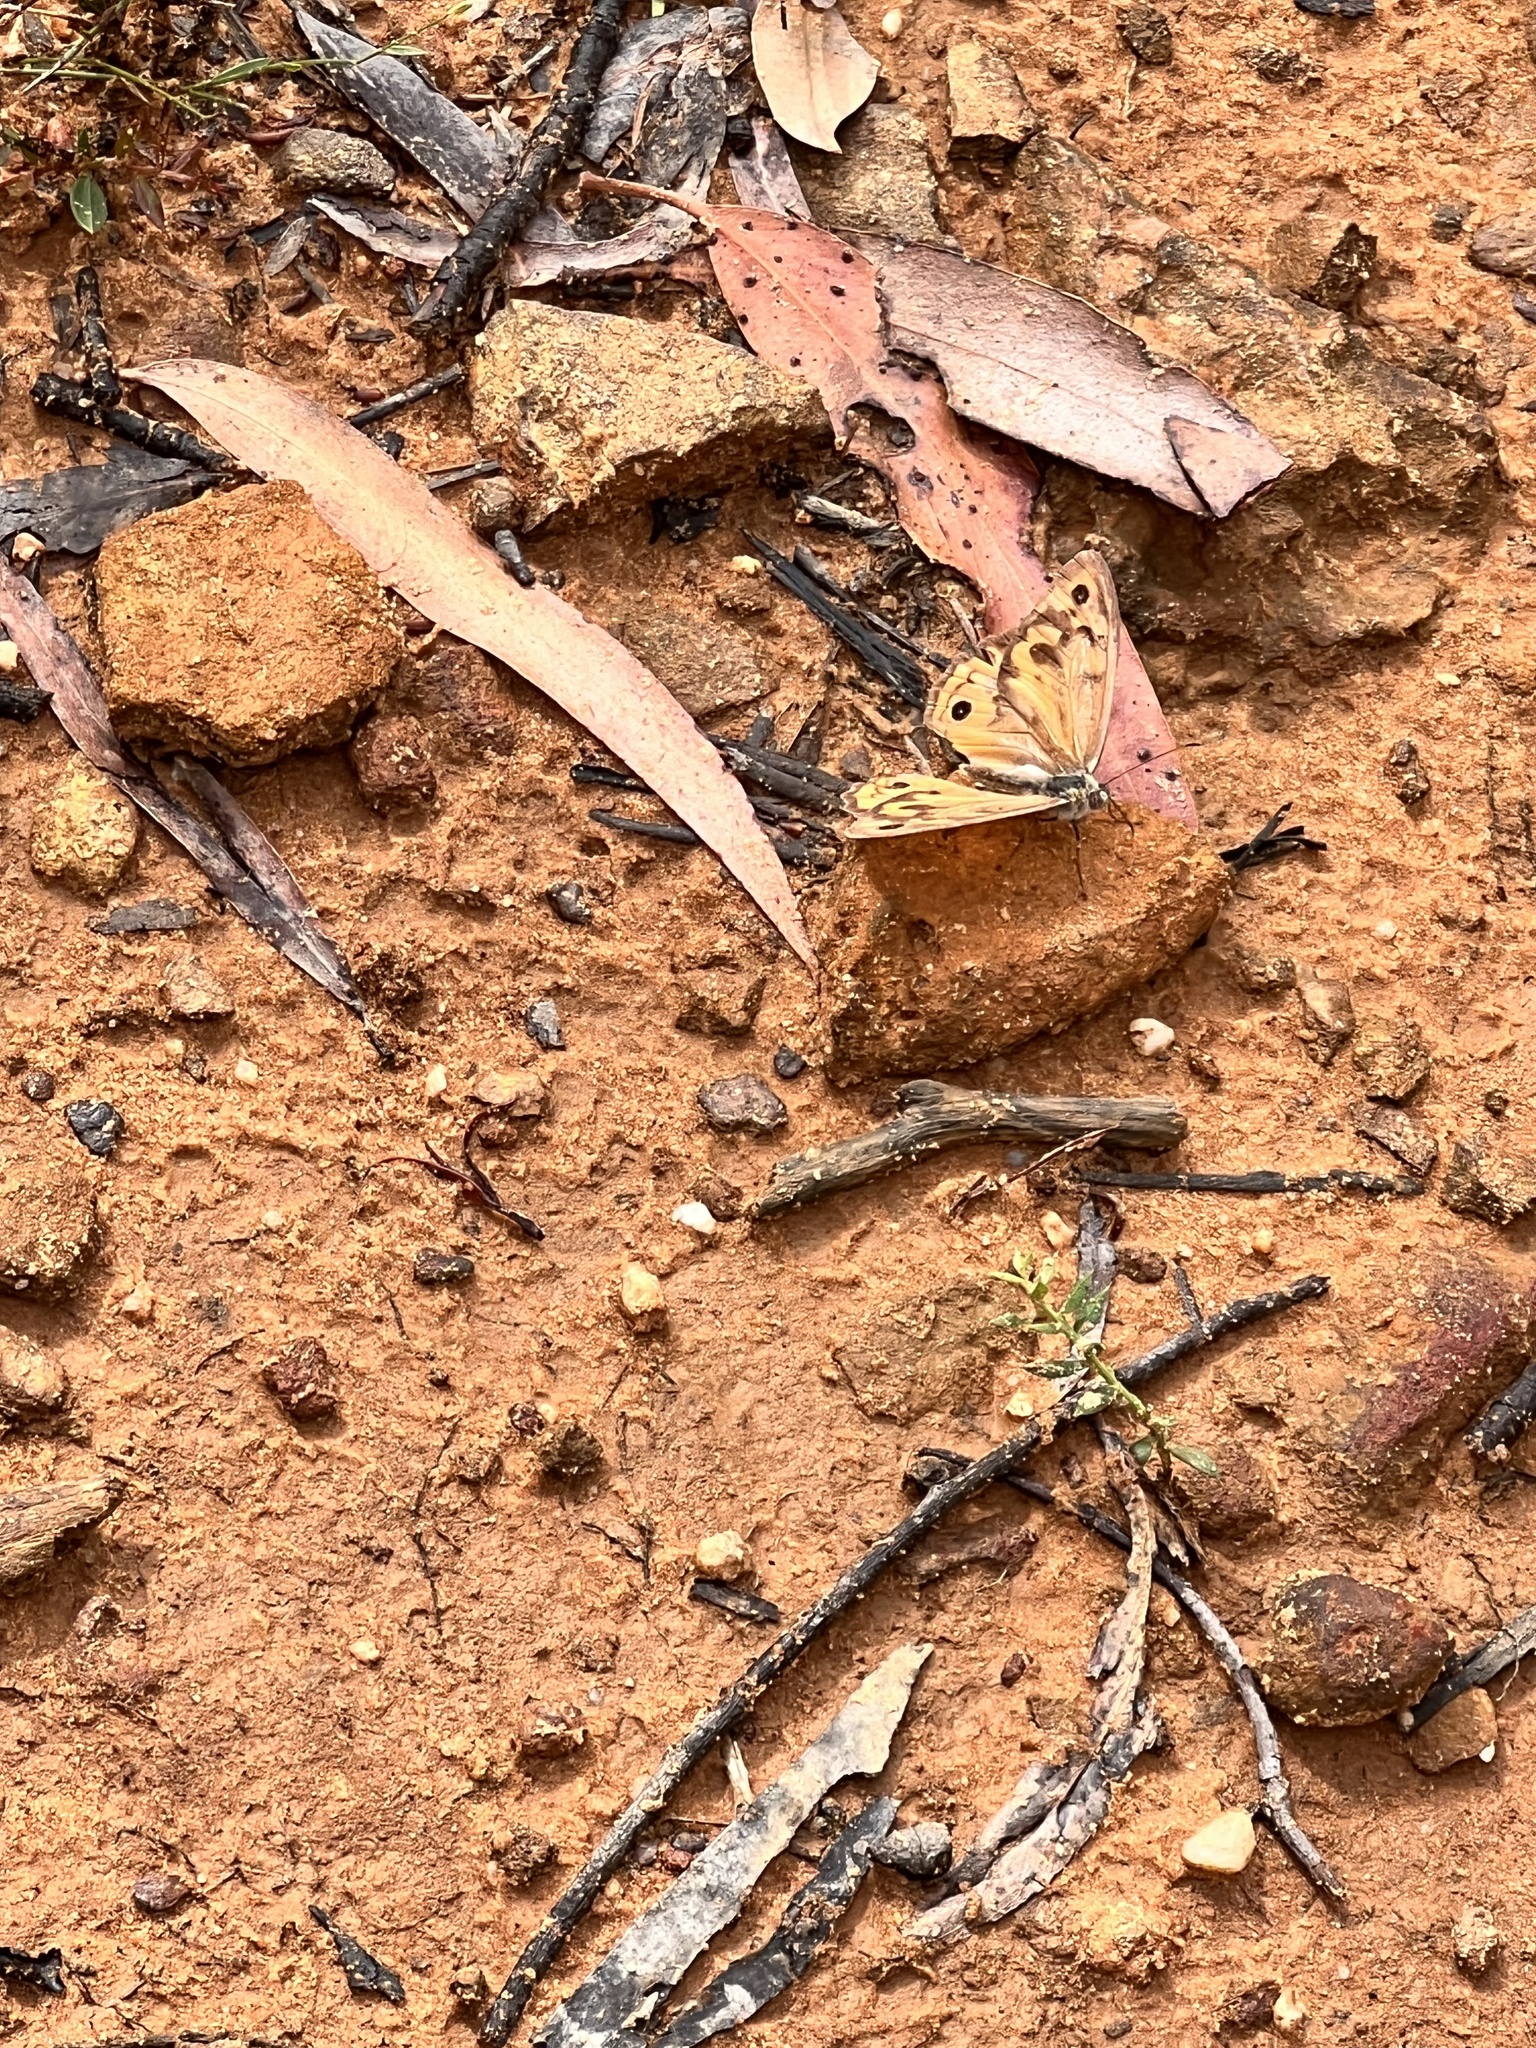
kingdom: Animalia
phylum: Arthropoda
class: Insecta
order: Lepidoptera
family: Nymphalidae
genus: Heteronympha
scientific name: Heteronympha merope
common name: Common brown
